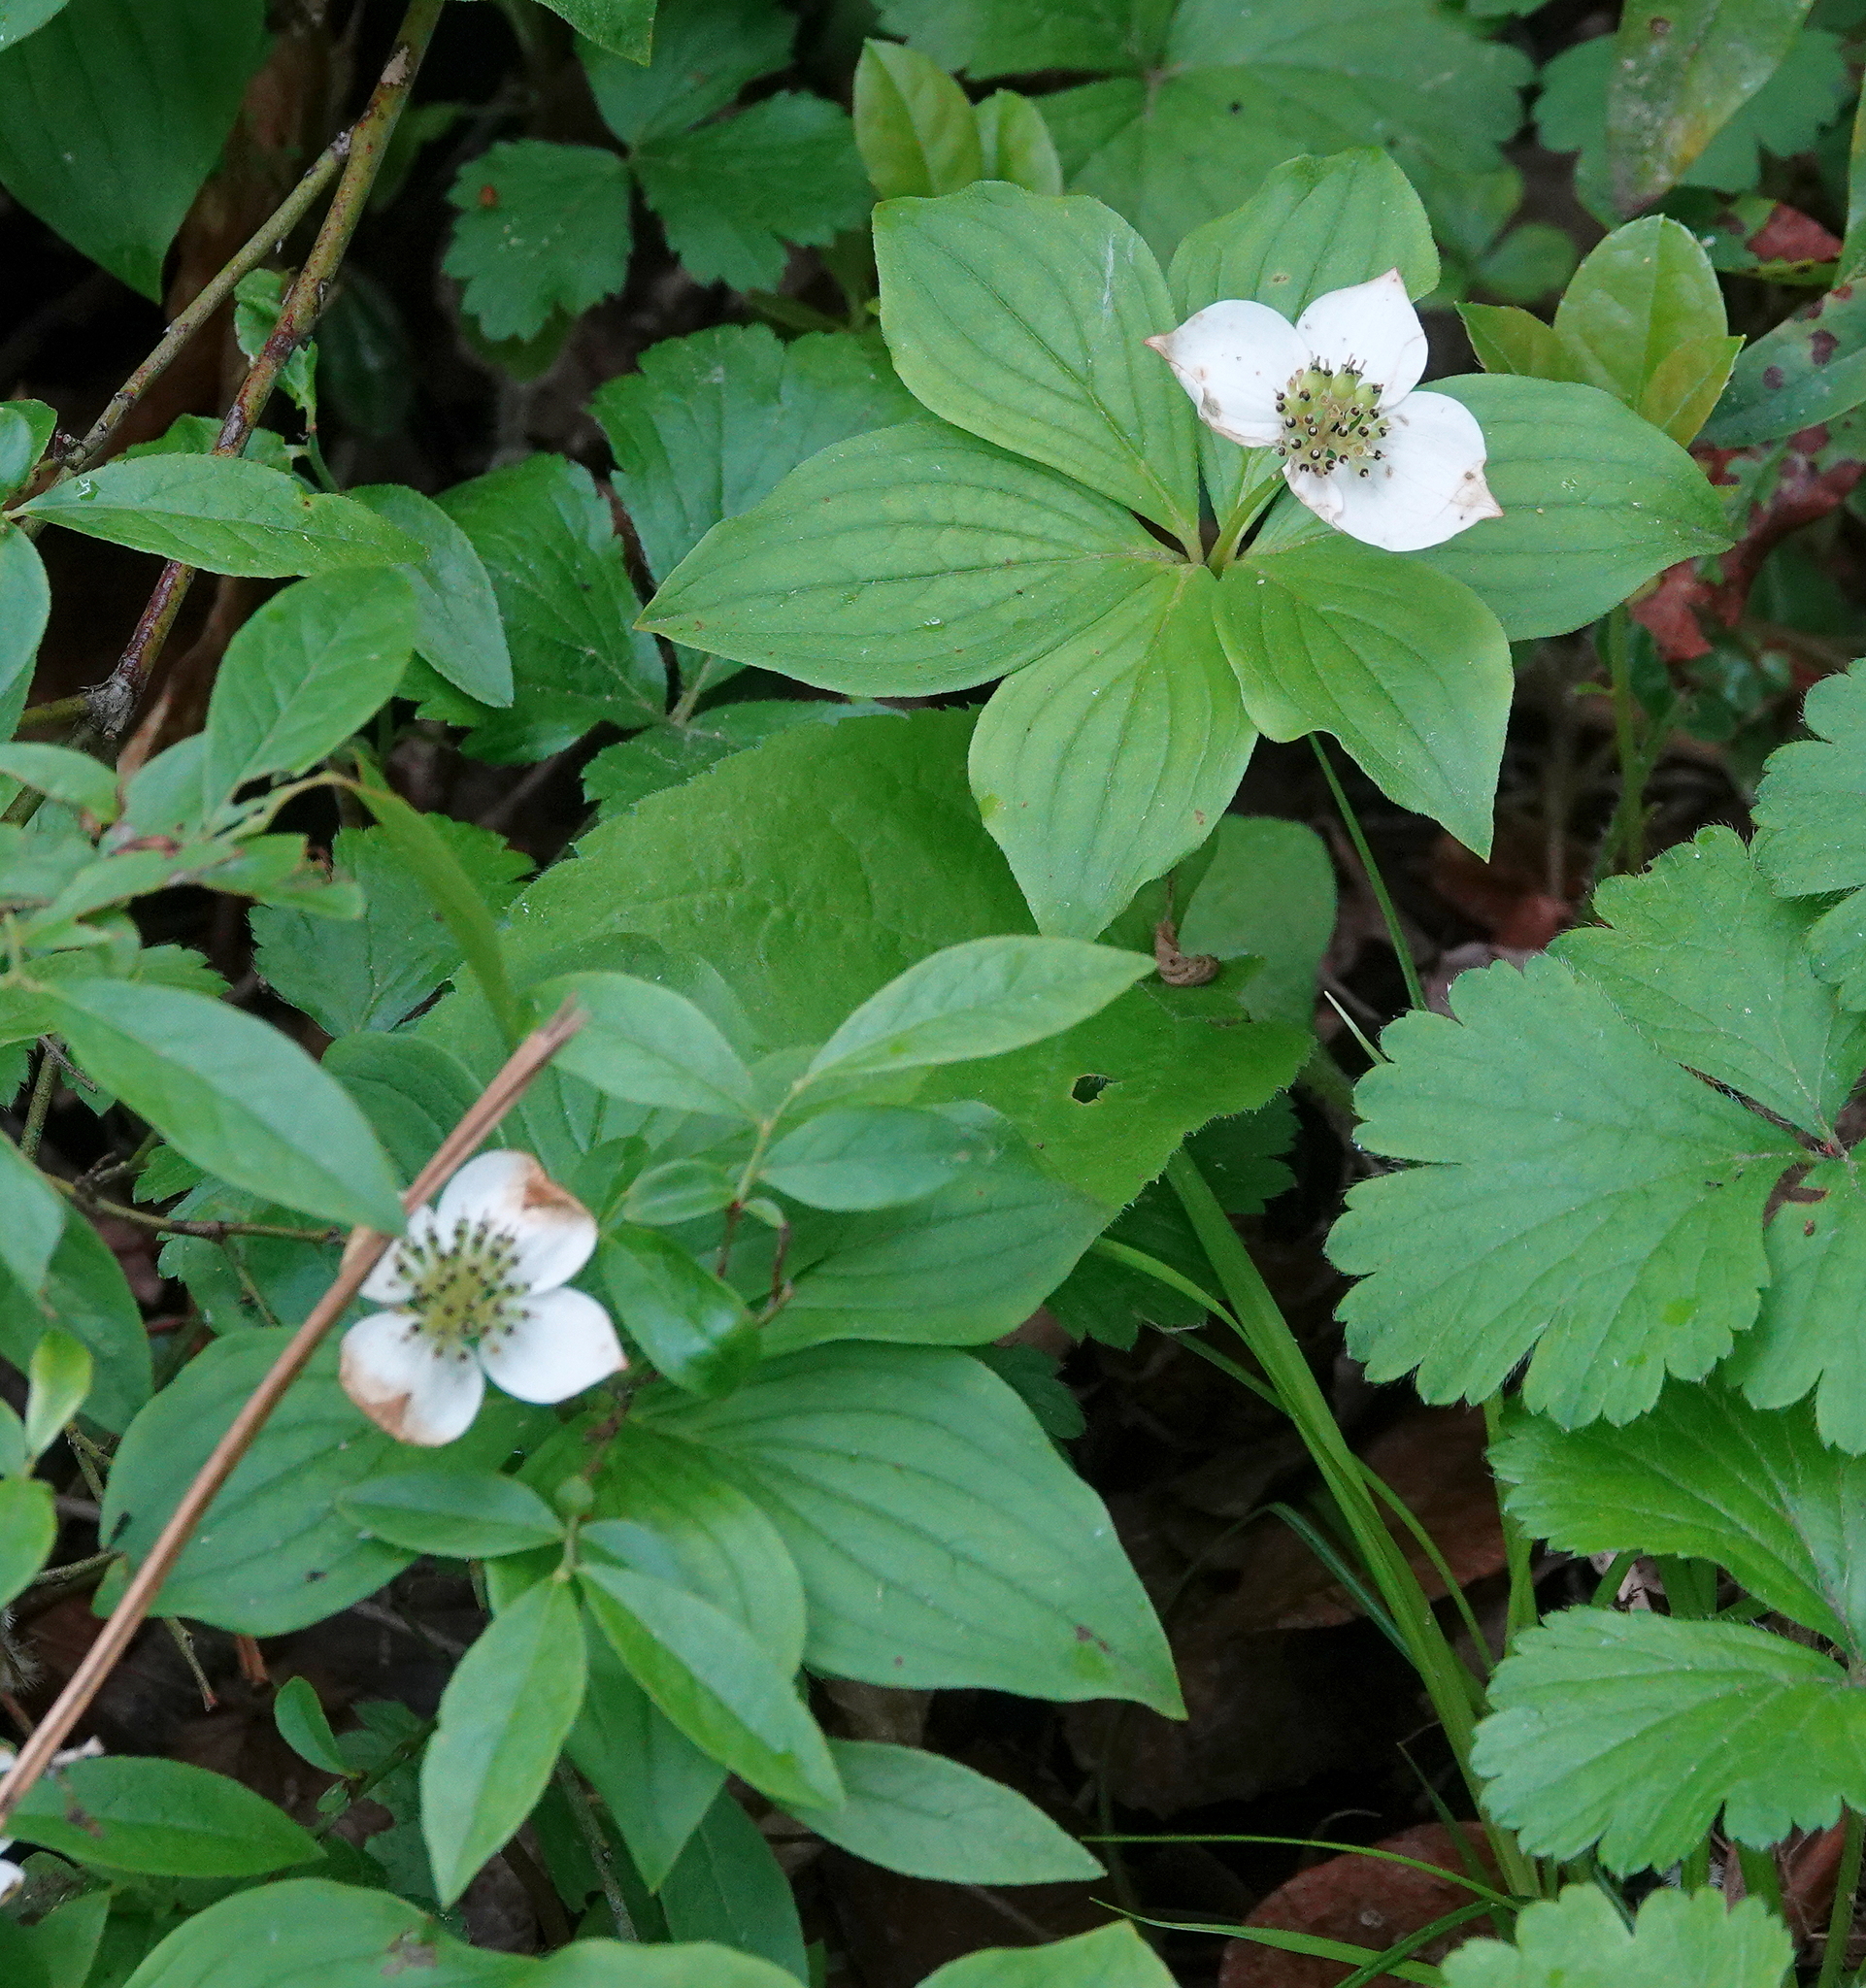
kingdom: Plantae
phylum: Tracheophyta
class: Magnoliopsida
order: Cornales
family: Cornaceae
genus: Cornus
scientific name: Cornus canadensis
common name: Creeping dogwood
